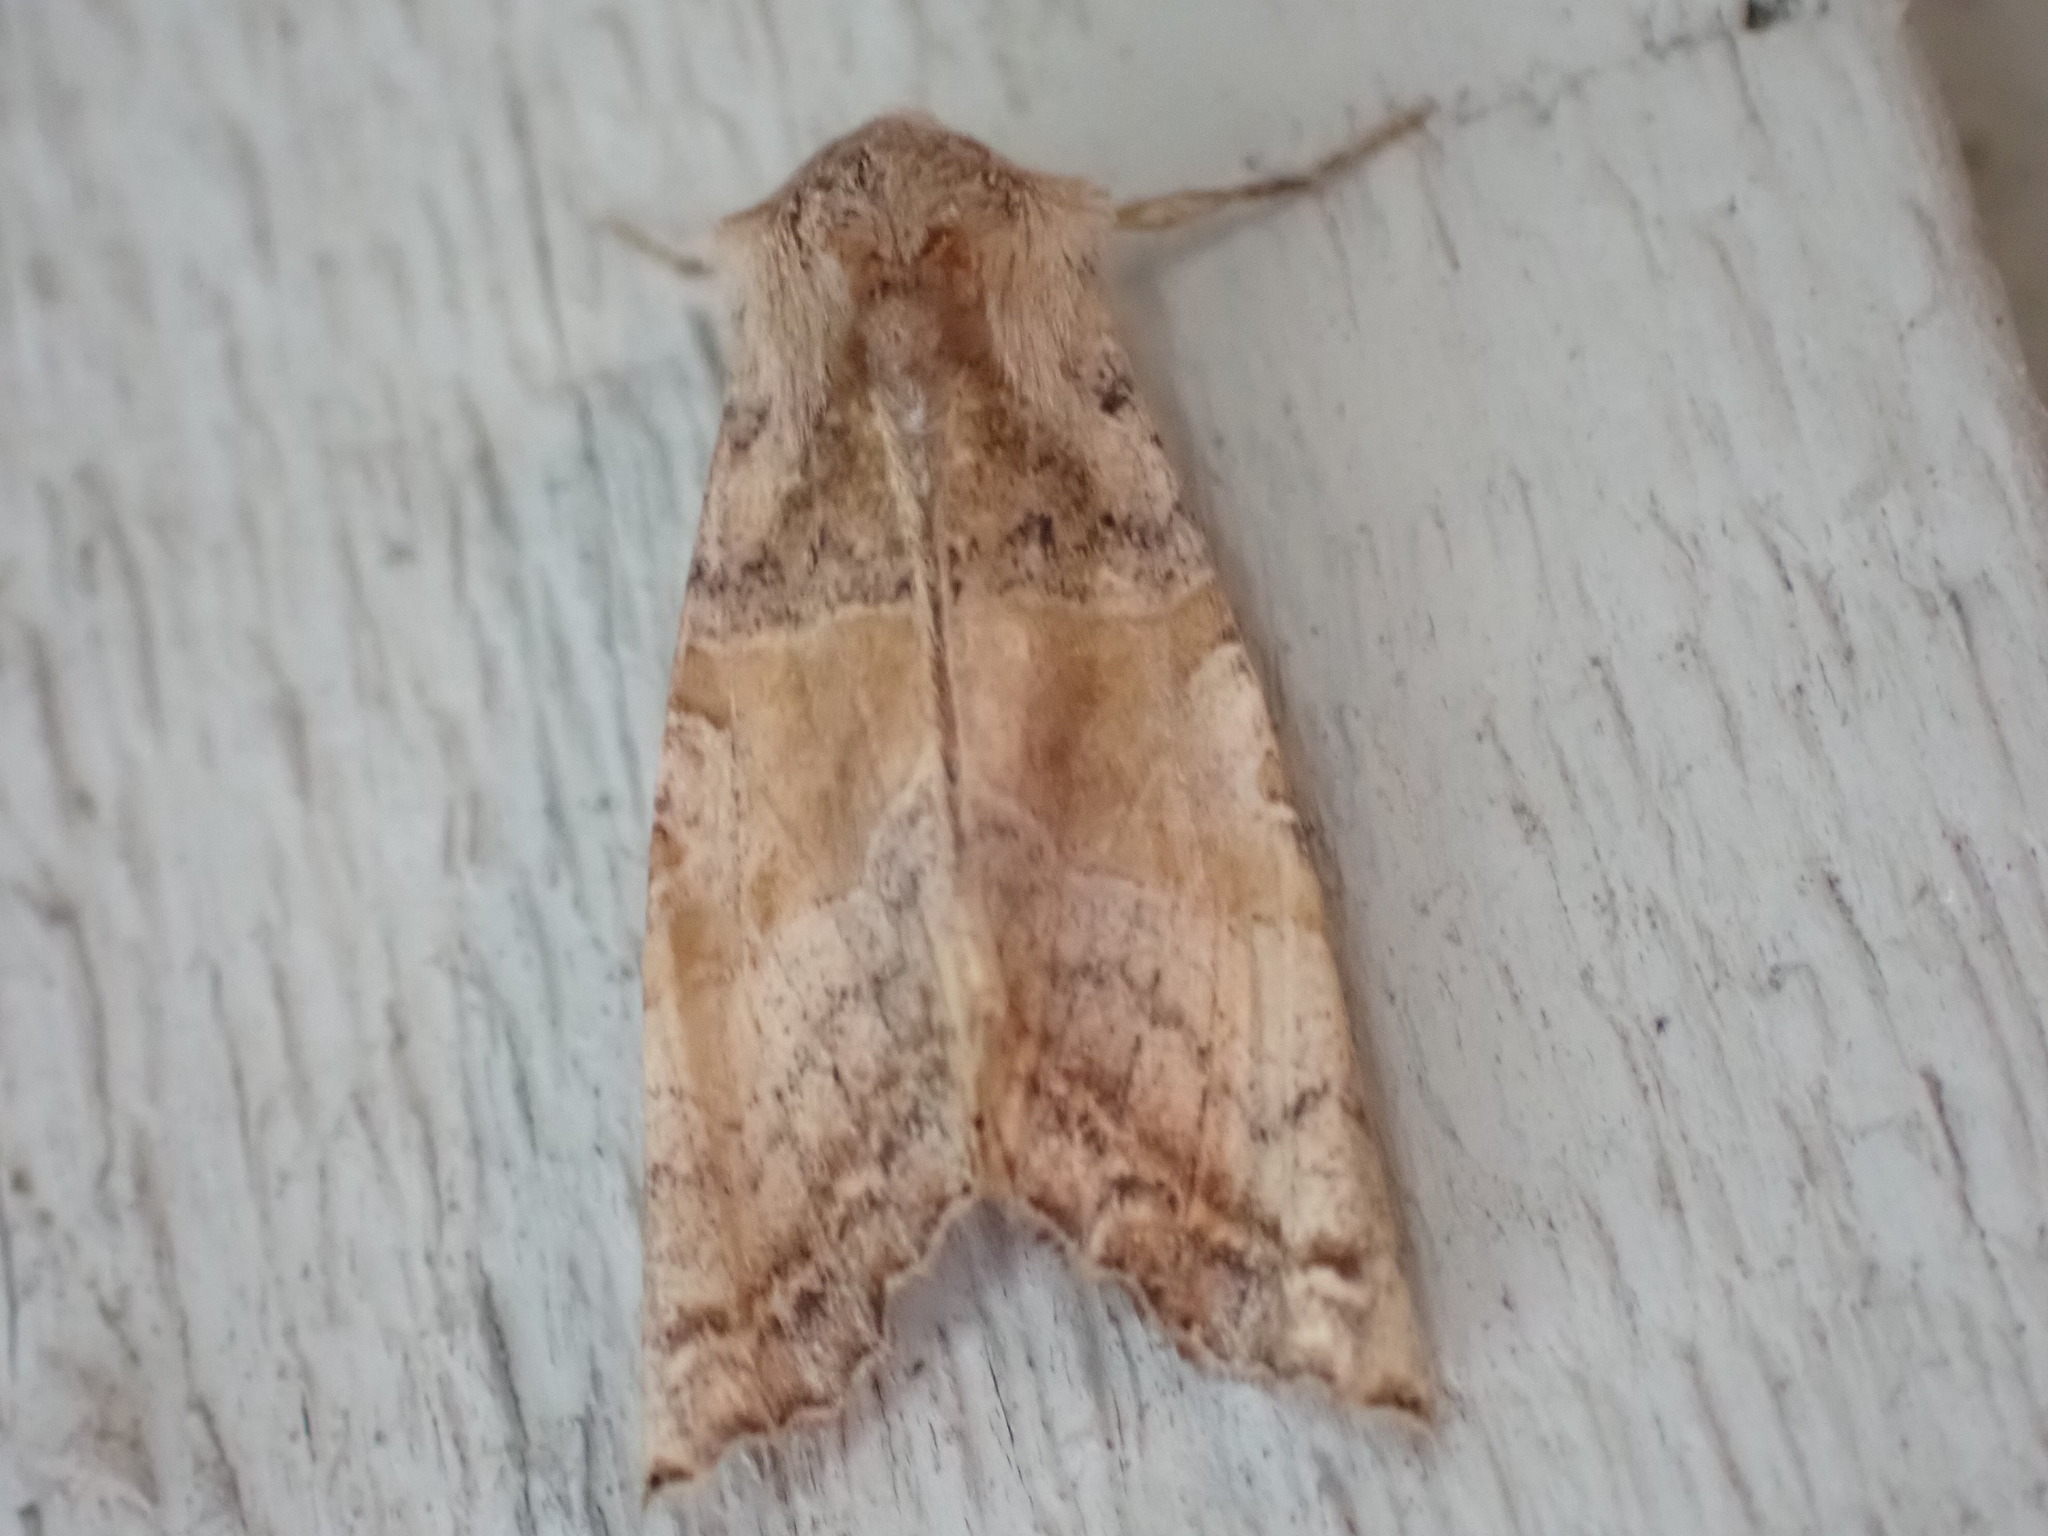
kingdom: Animalia
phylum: Arthropoda
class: Insecta
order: Lepidoptera
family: Noctuidae
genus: Phlogophora
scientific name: Phlogophora periculosa
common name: Brown angle shades
